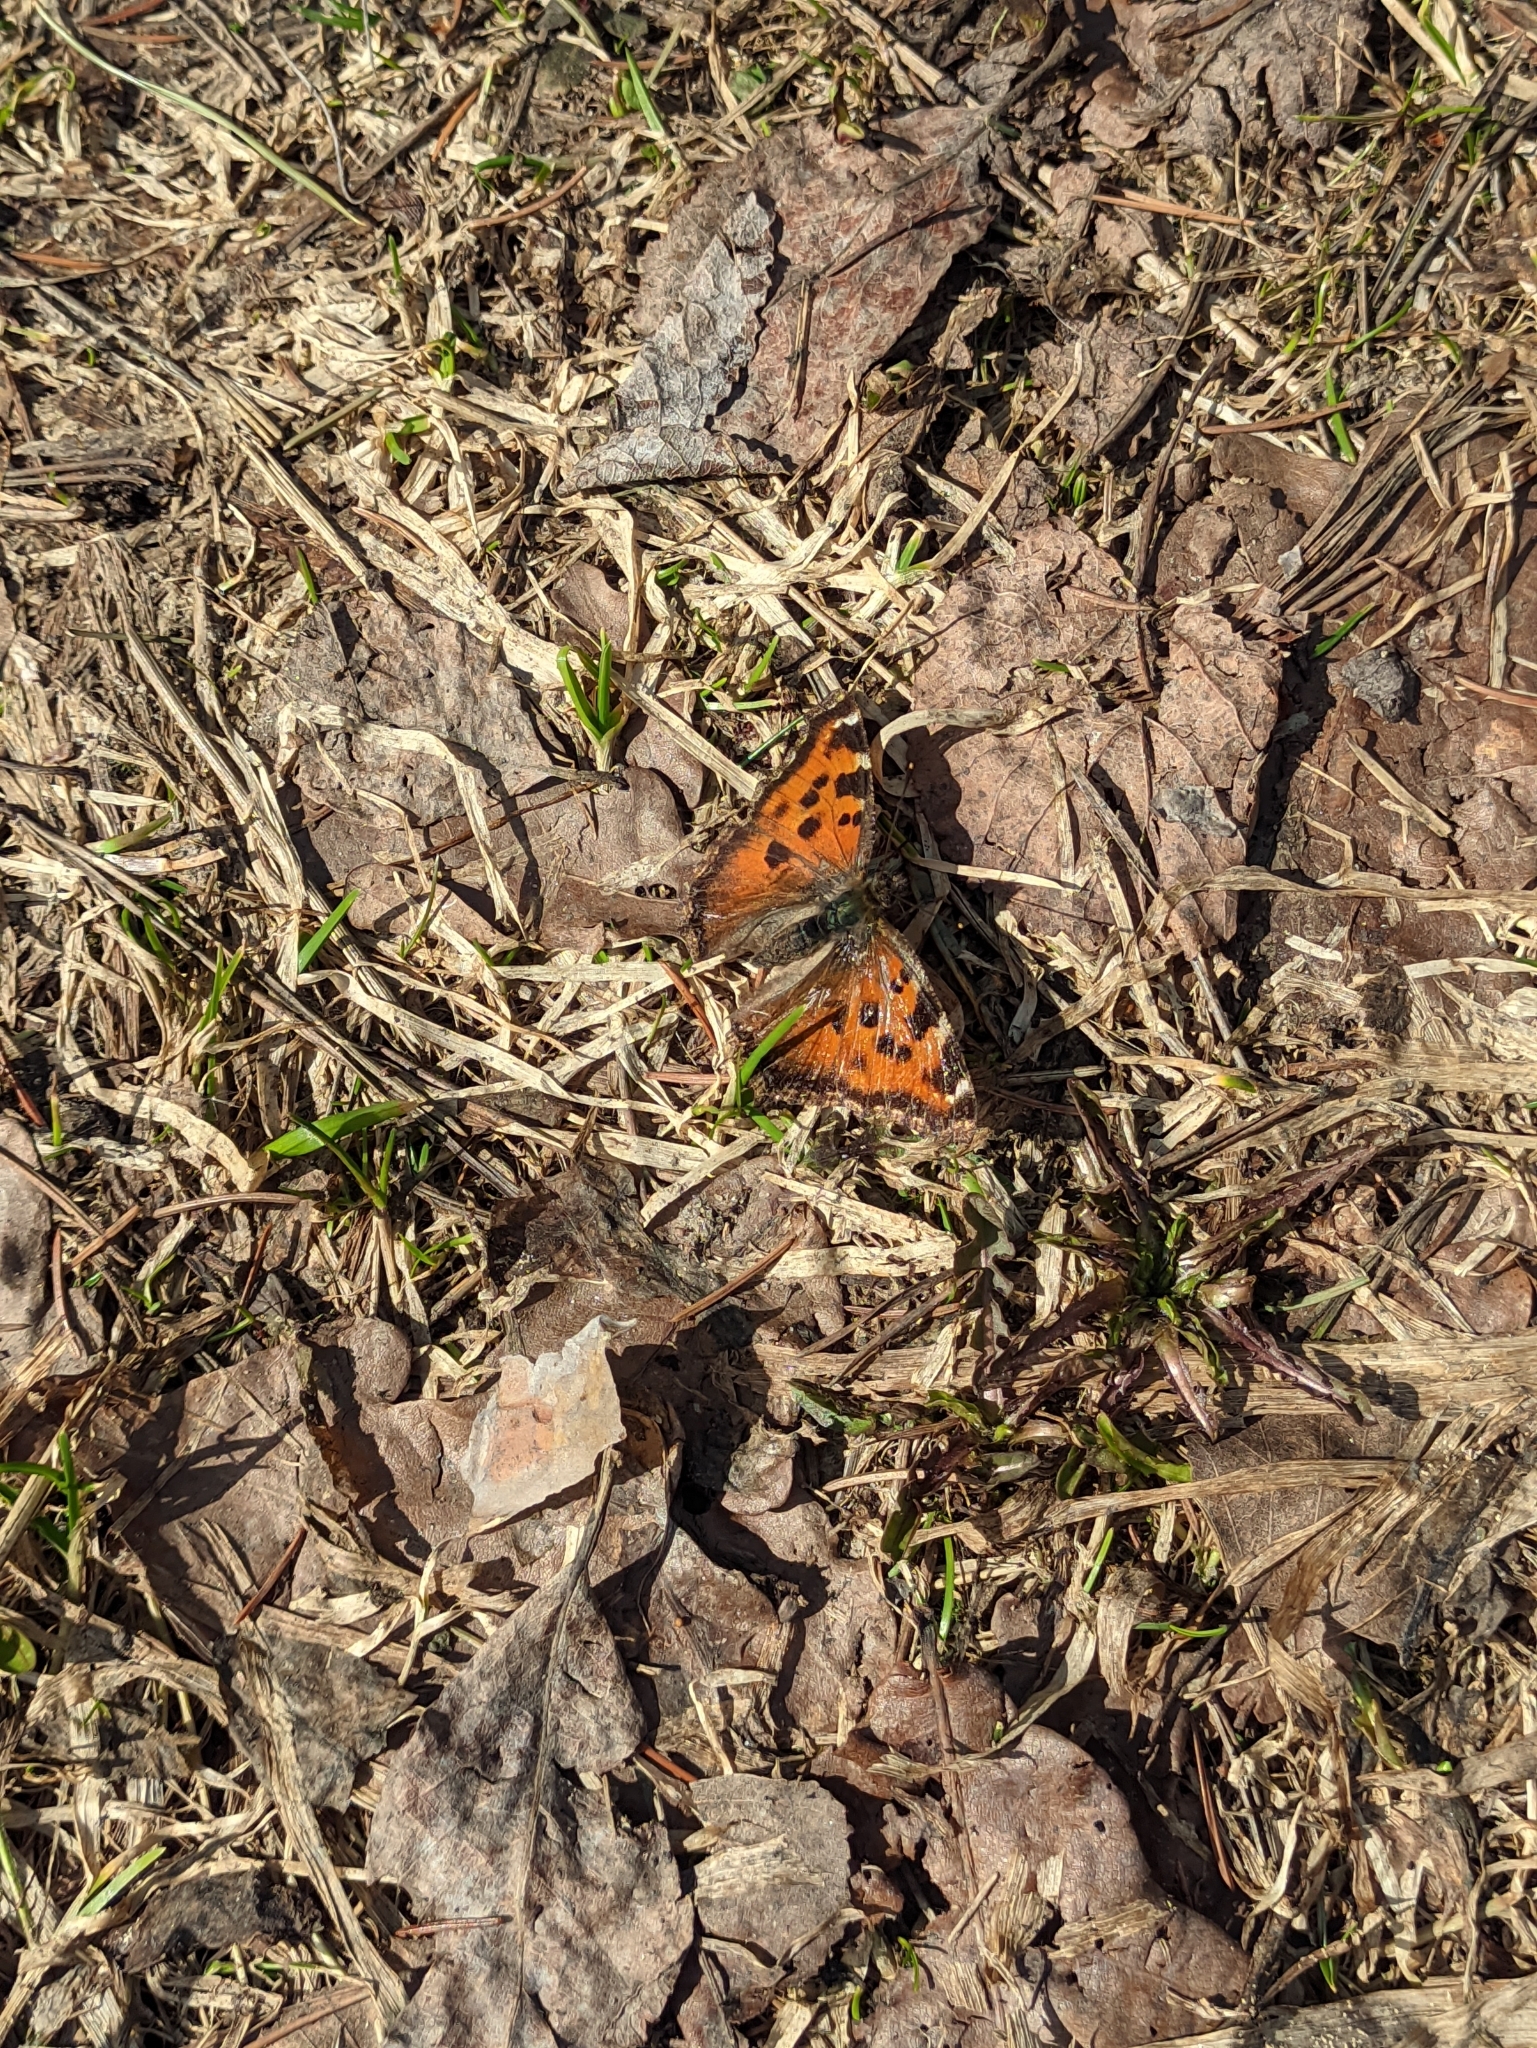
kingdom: Animalia
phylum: Arthropoda
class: Insecta
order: Lepidoptera
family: Nymphalidae
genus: Nymphalis
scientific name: Nymphalis xanthomelas
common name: Scarce tortoiseshell
